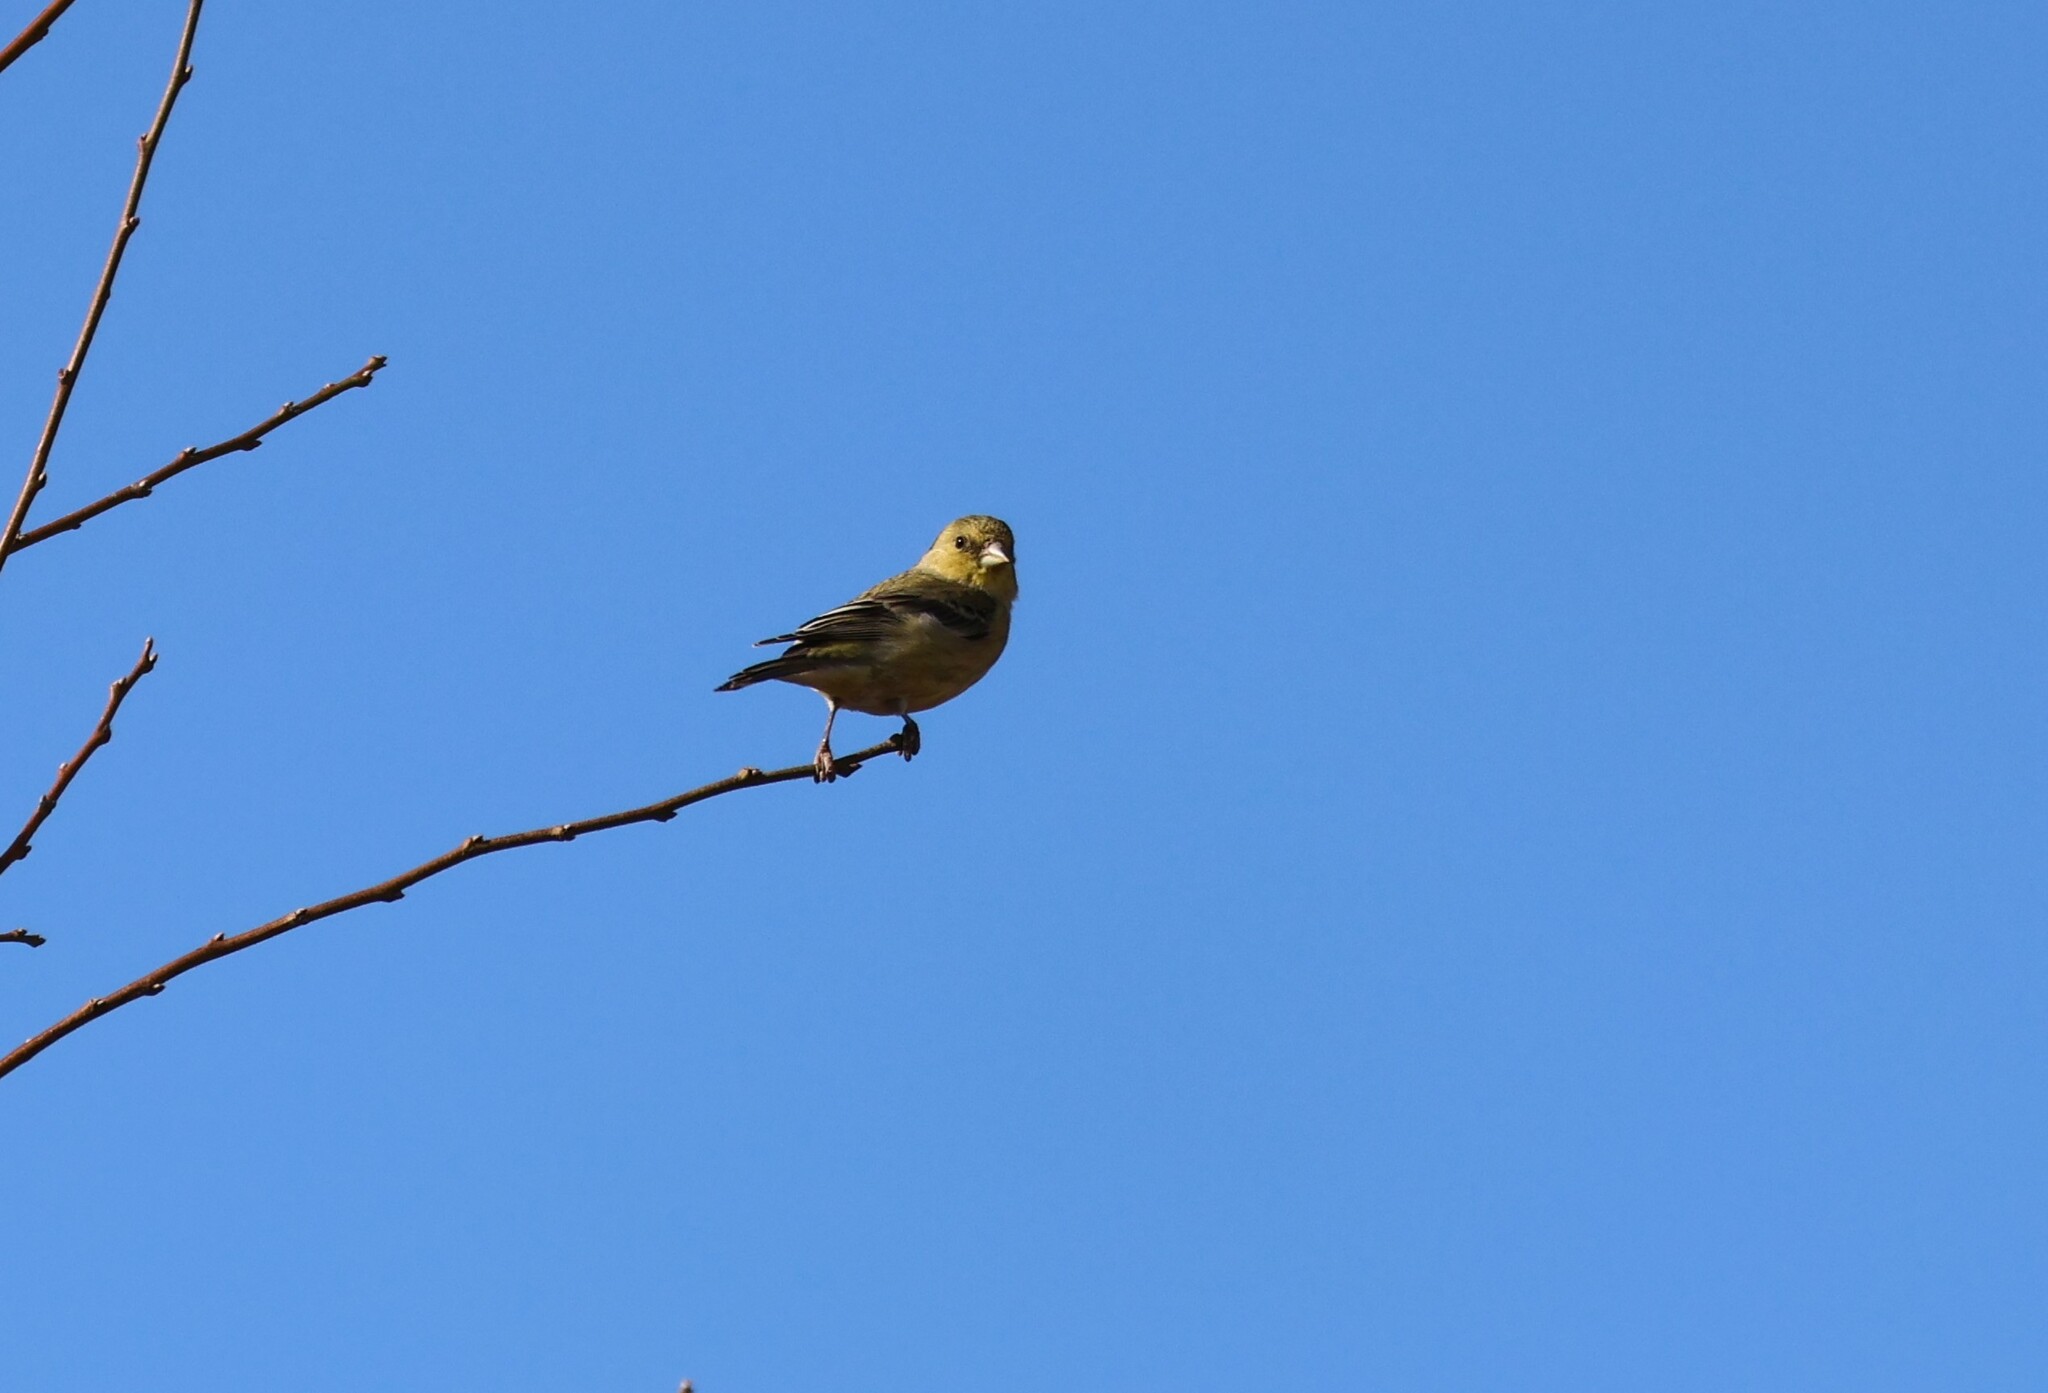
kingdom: Animalia
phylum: Chordata
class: Aves
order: Passeriformes
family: Fringillidae
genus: Spinus
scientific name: Spinus psaltria
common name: Lesser goldfinch
